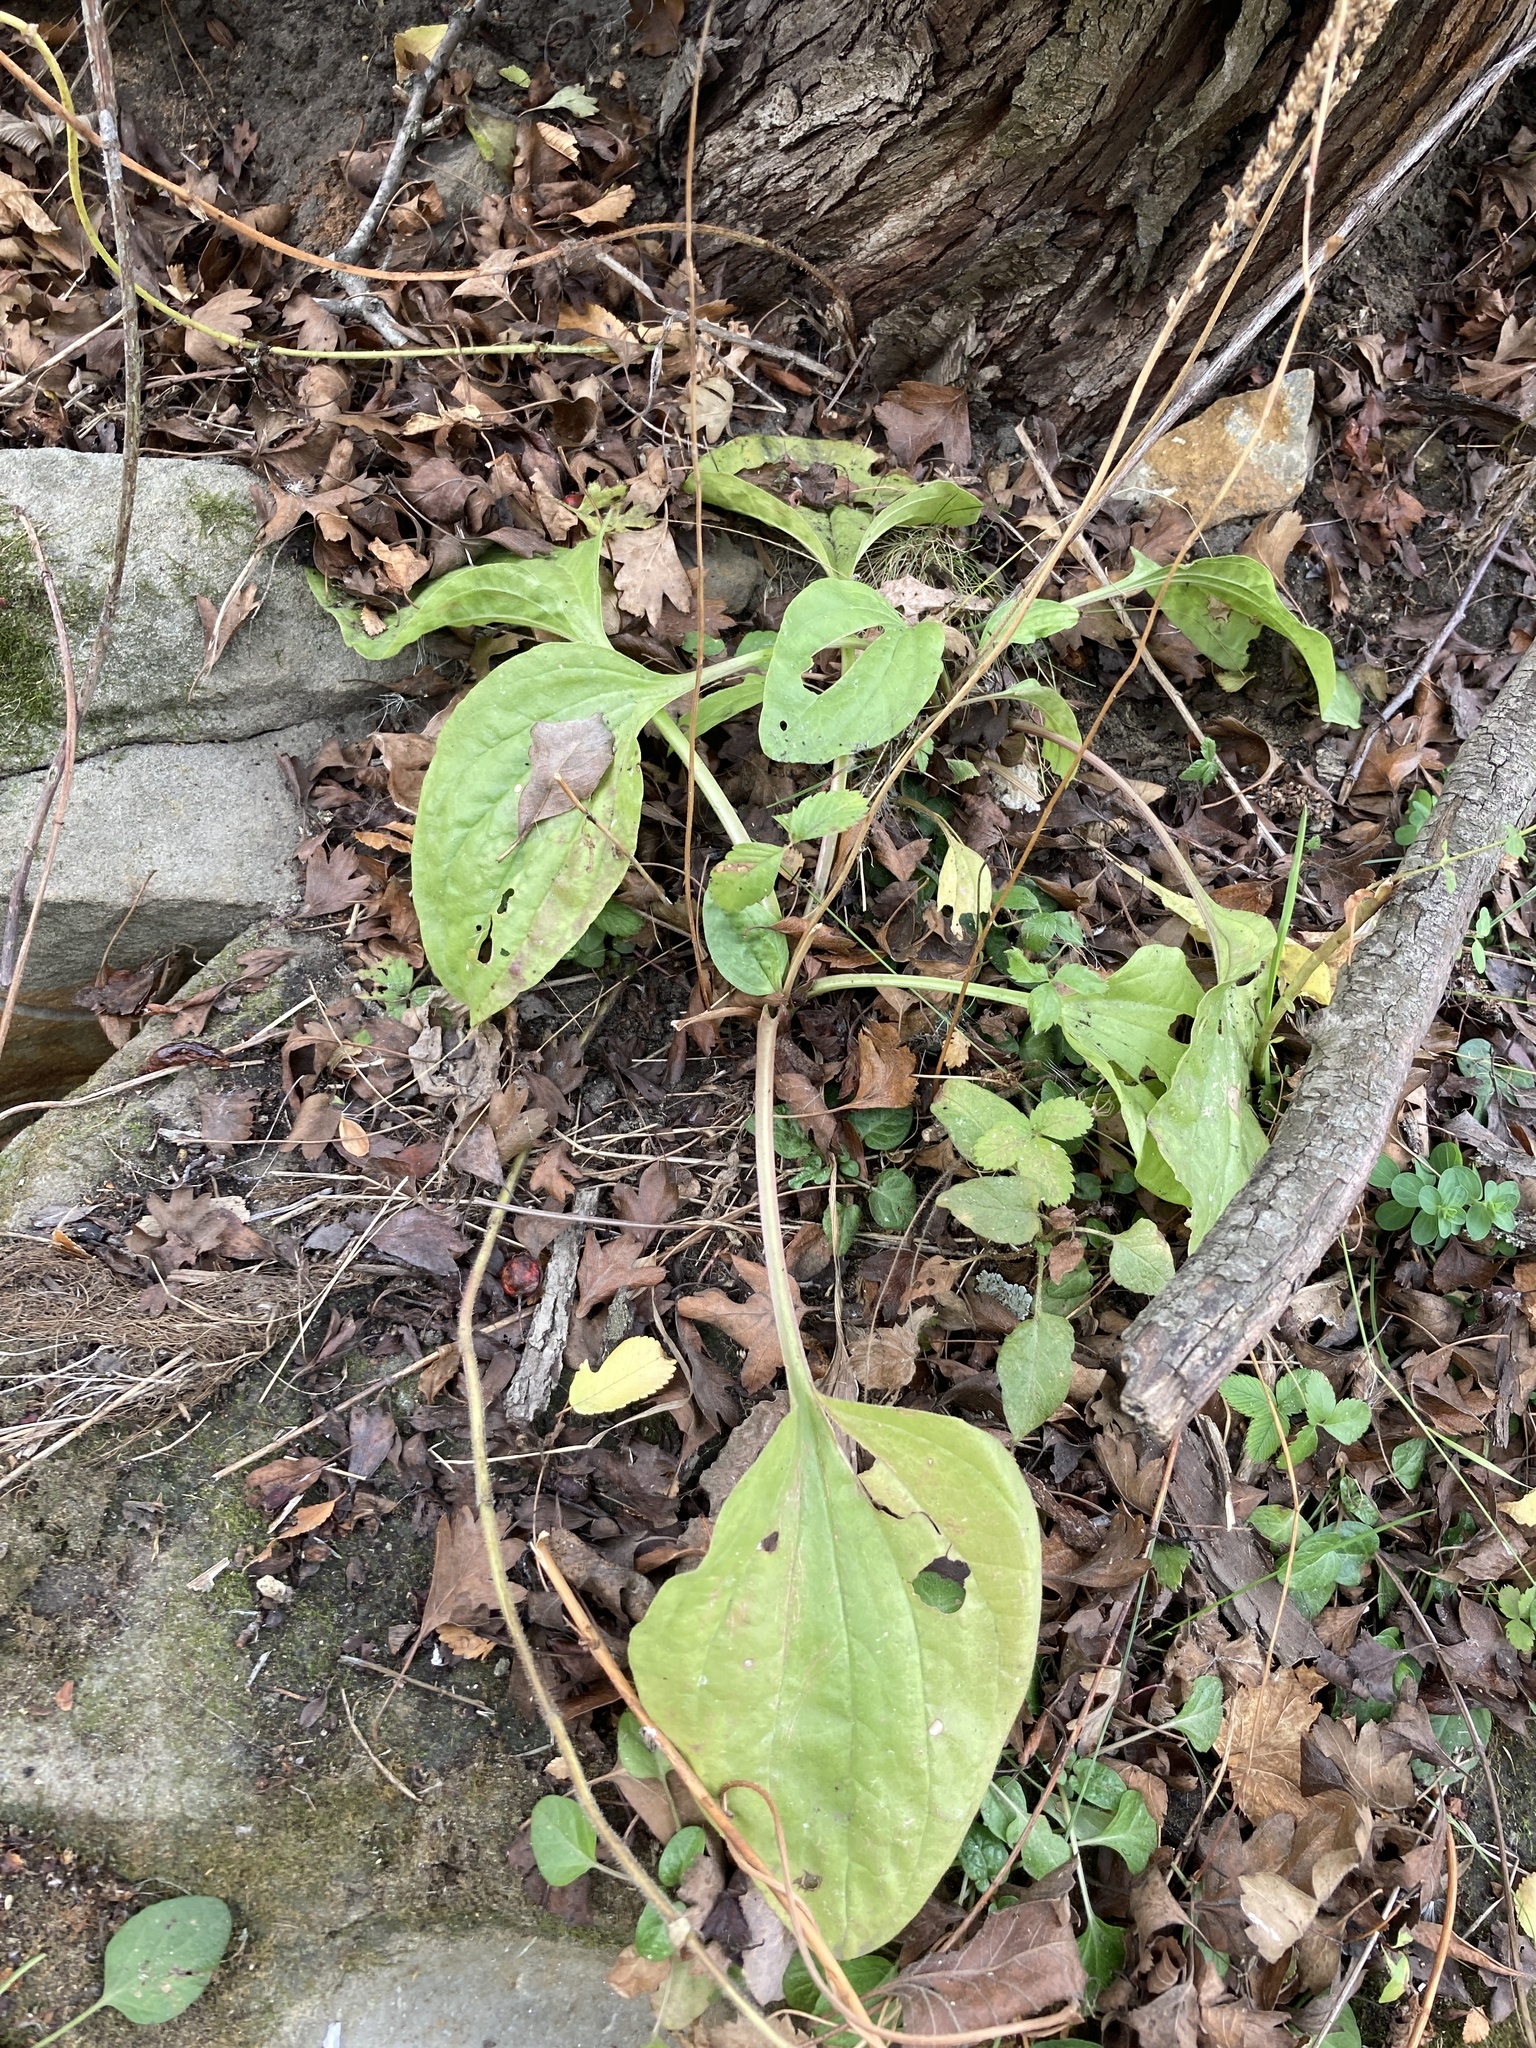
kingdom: Plantae
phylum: Tracheophyta
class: Magnoliopsida
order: Lamiales
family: Plantaginaceae
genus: Plantago
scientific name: Plantago major
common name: Common plantain
